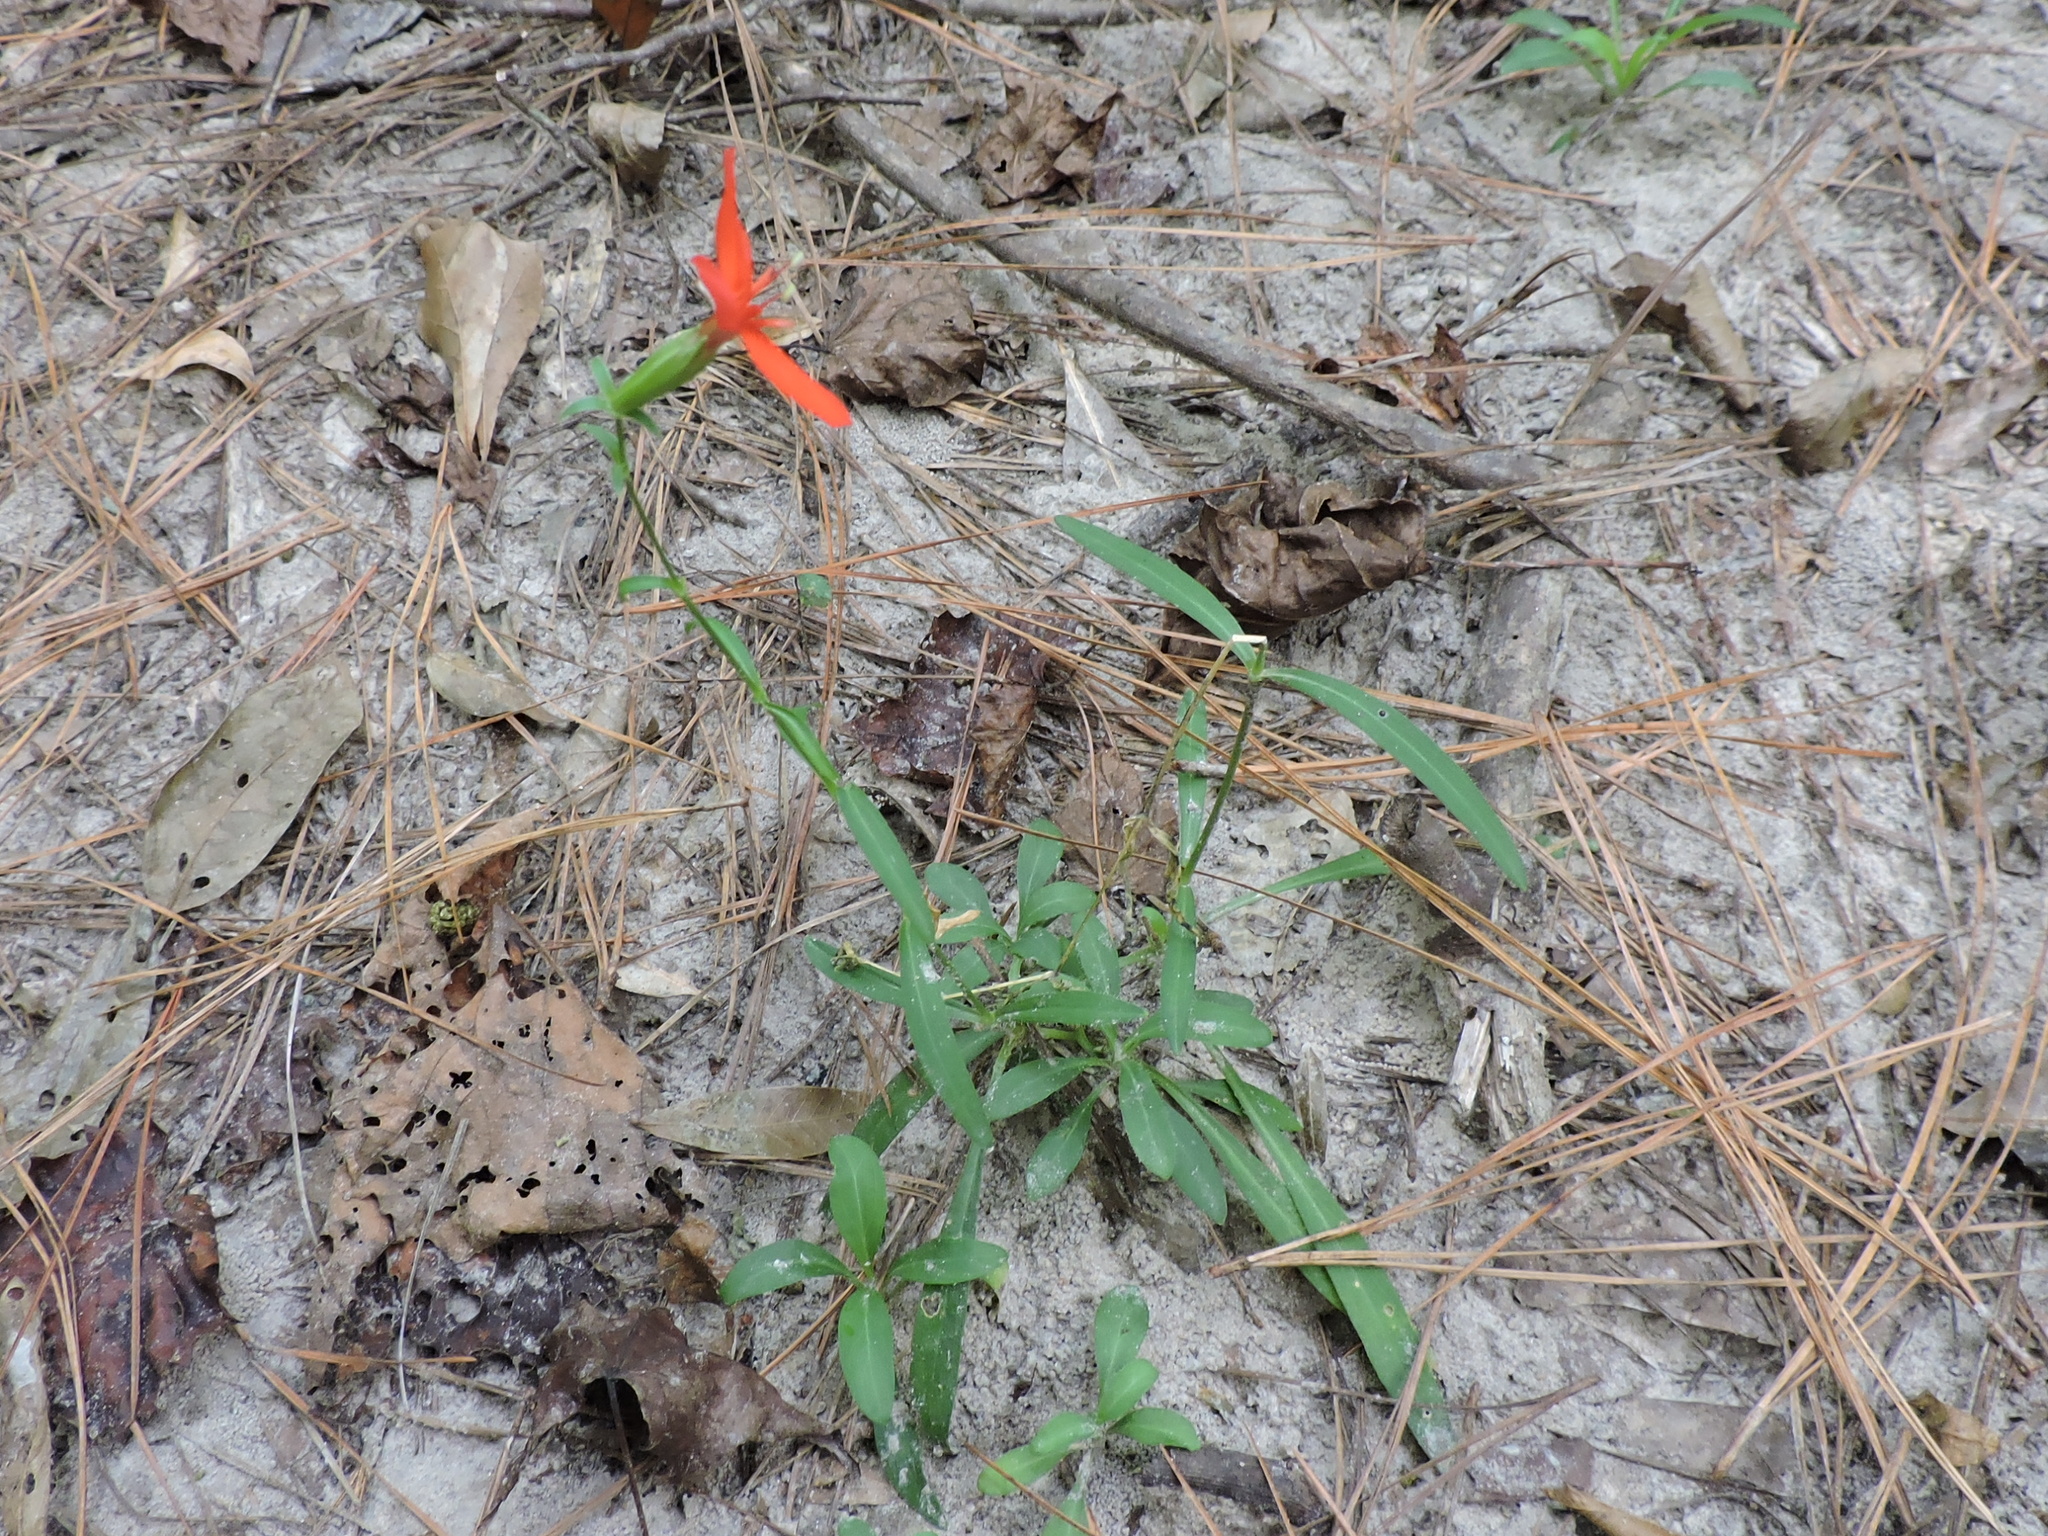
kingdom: Plantae
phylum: Tracheophyta
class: Magnoliopsida
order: Caryophyllales
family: Caryophyllaceae
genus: Silene
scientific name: Silene subciliata
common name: Prairie fire-pink
